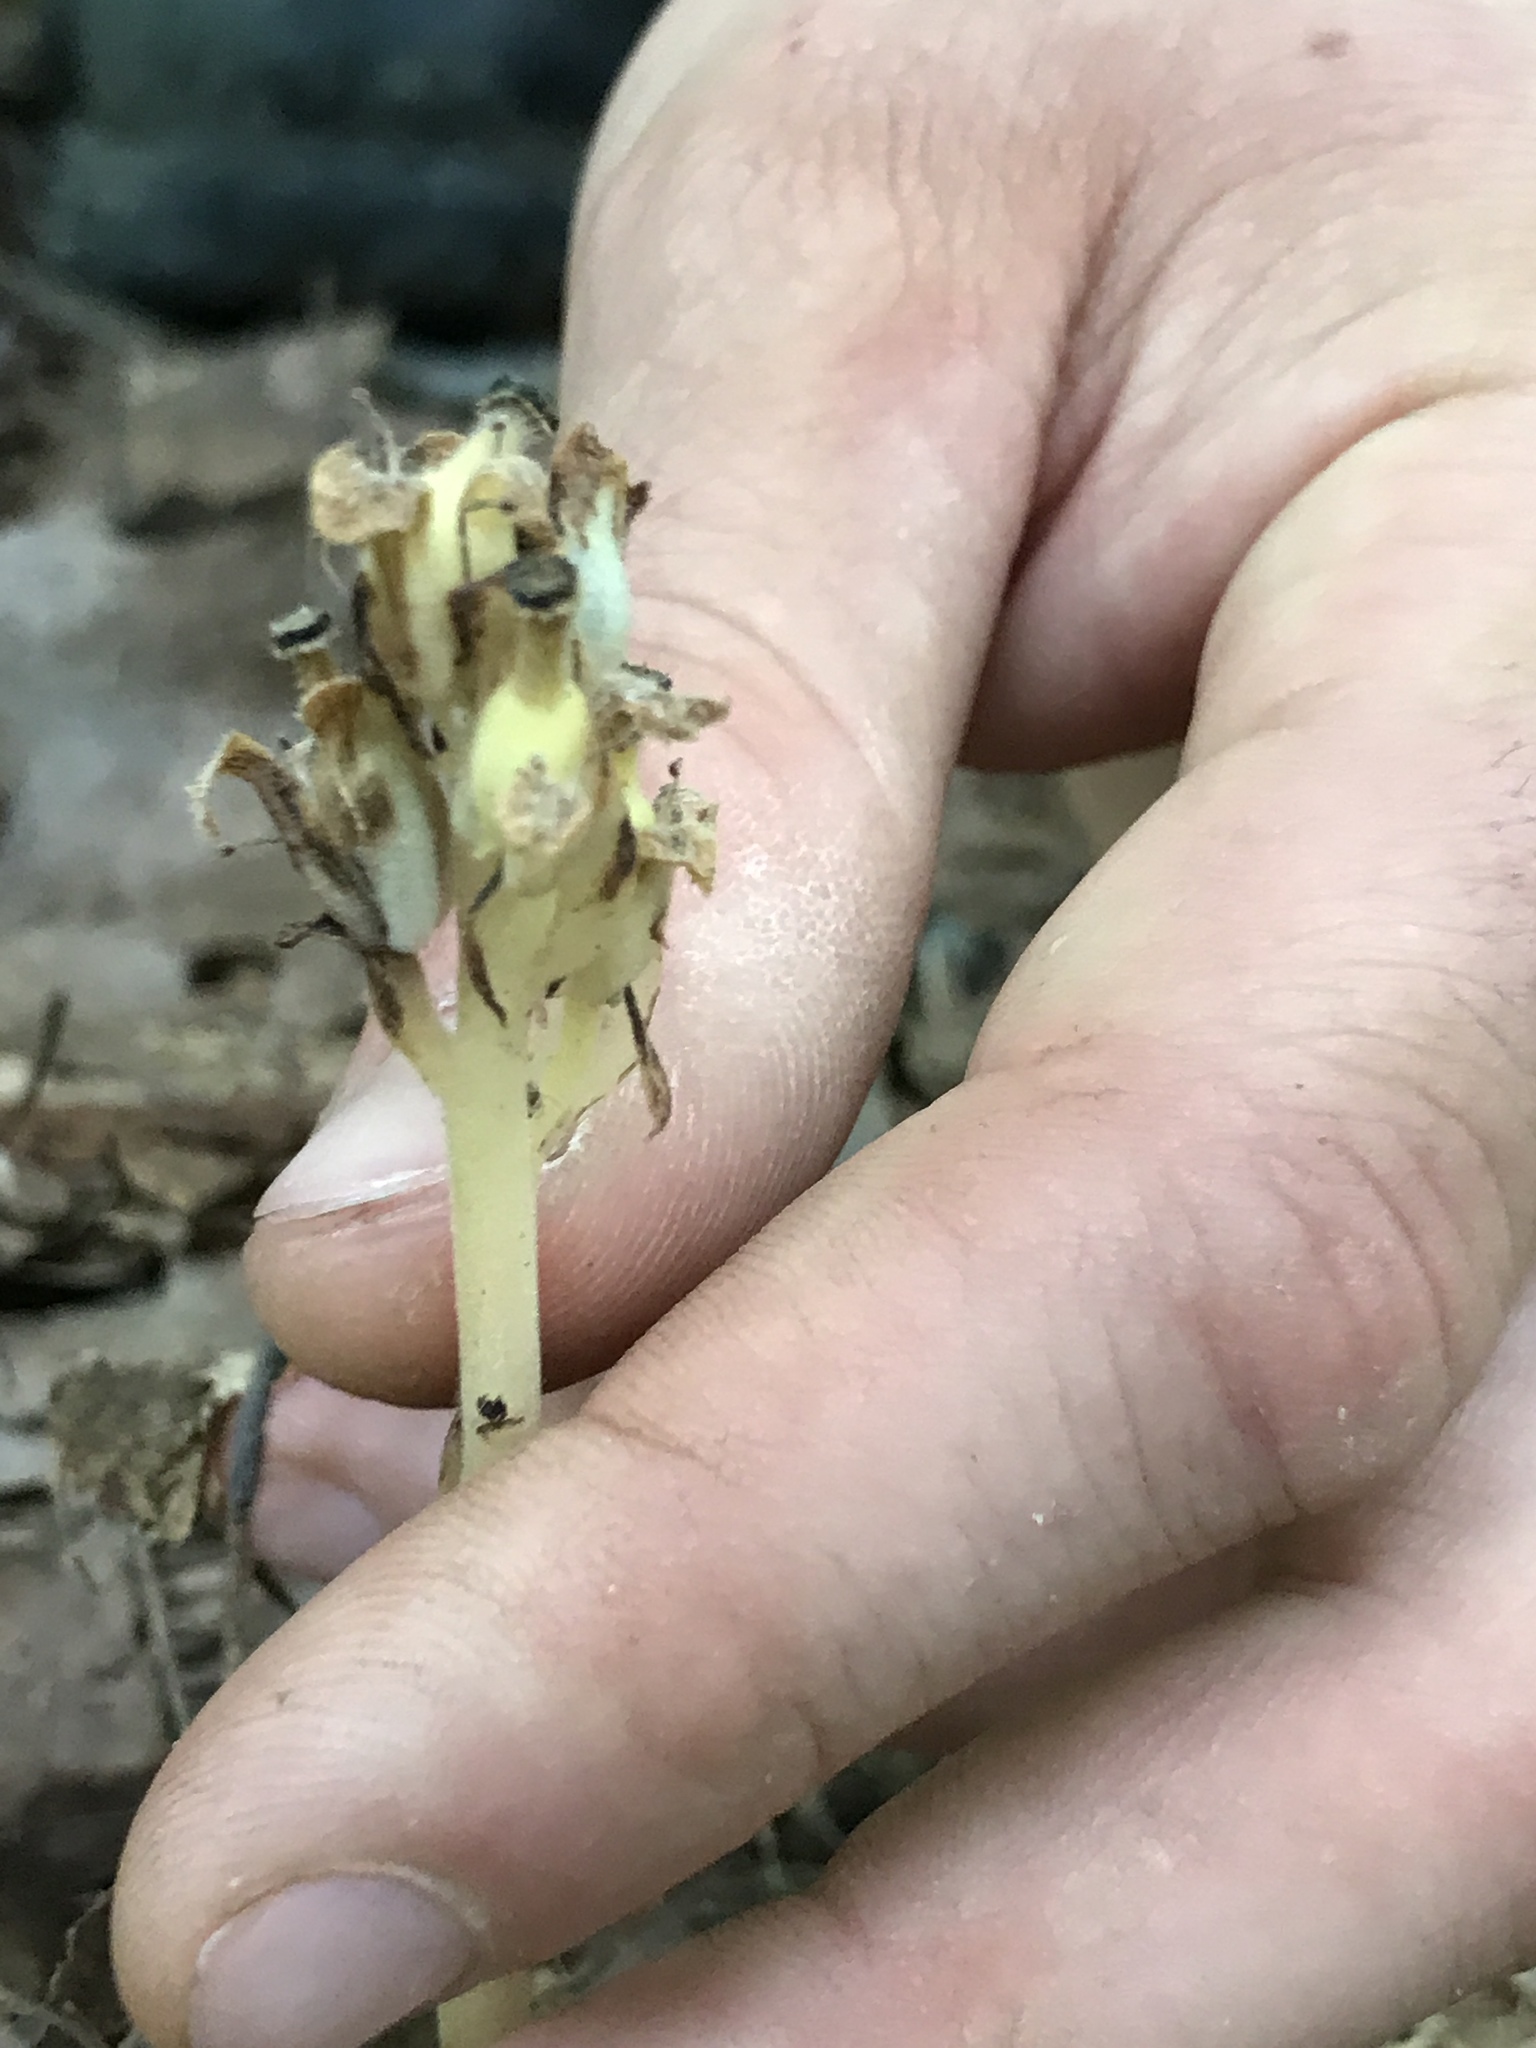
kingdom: Plantae
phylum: Tracheophyta
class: Magnoliopsida
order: Ericales
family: Ericaceae
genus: Hypopitys
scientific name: Hypopitys monotropa
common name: Yellow bird's-nest
